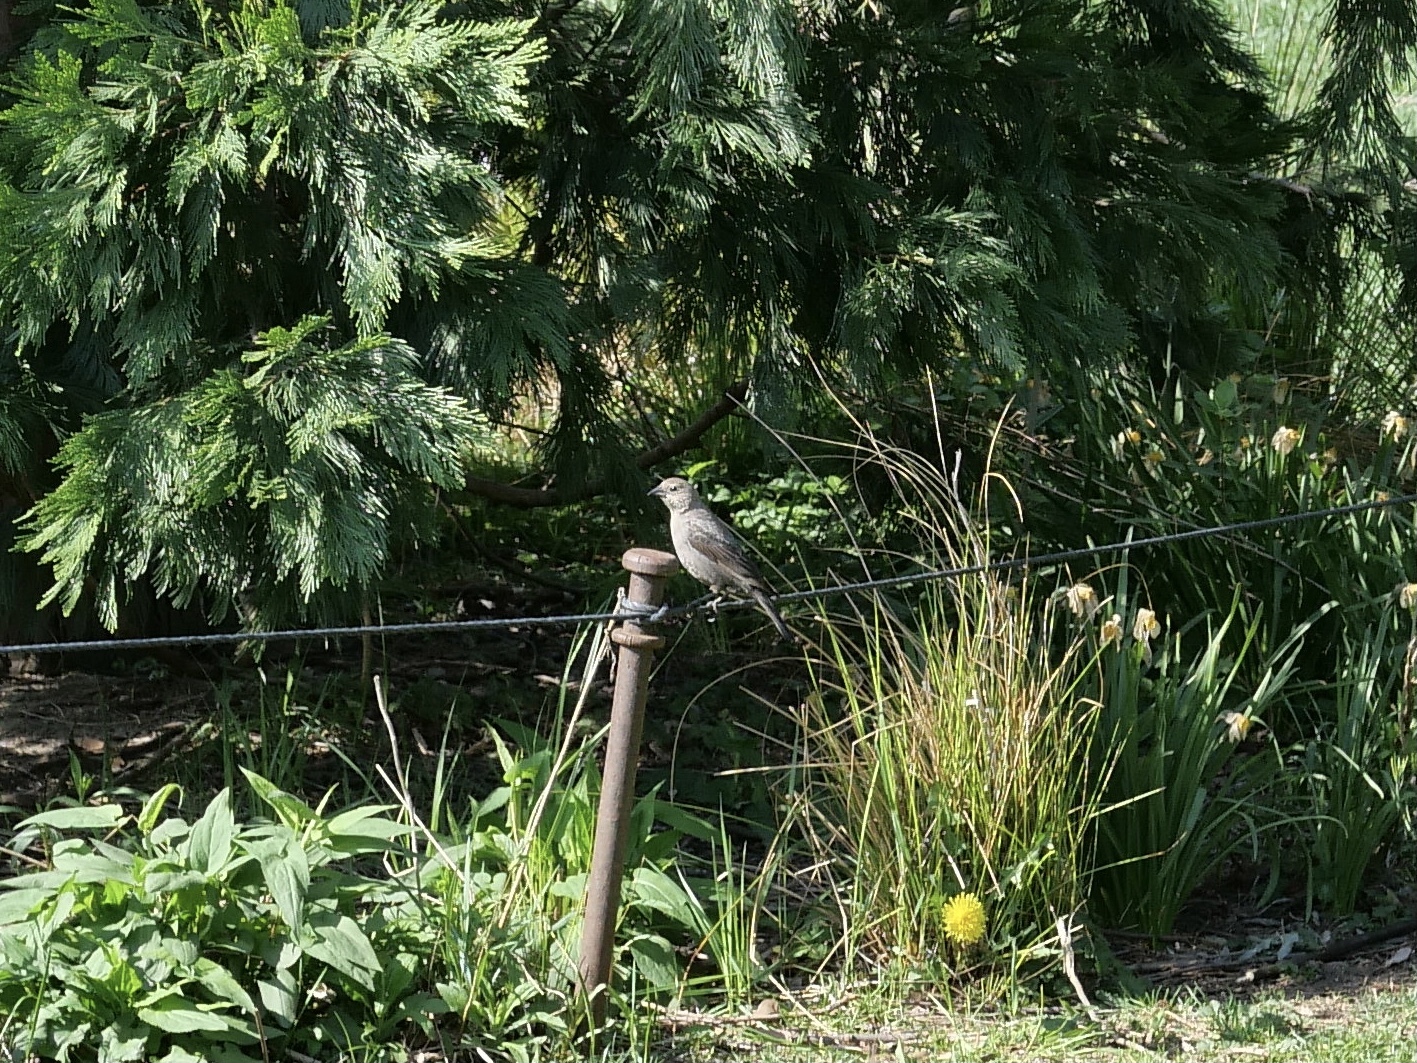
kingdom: Animalia
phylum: Chordata
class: Aves
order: Passeriformes
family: Icteridae
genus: Molothrus
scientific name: Molothrus ater
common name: Brown-headed cowbird
